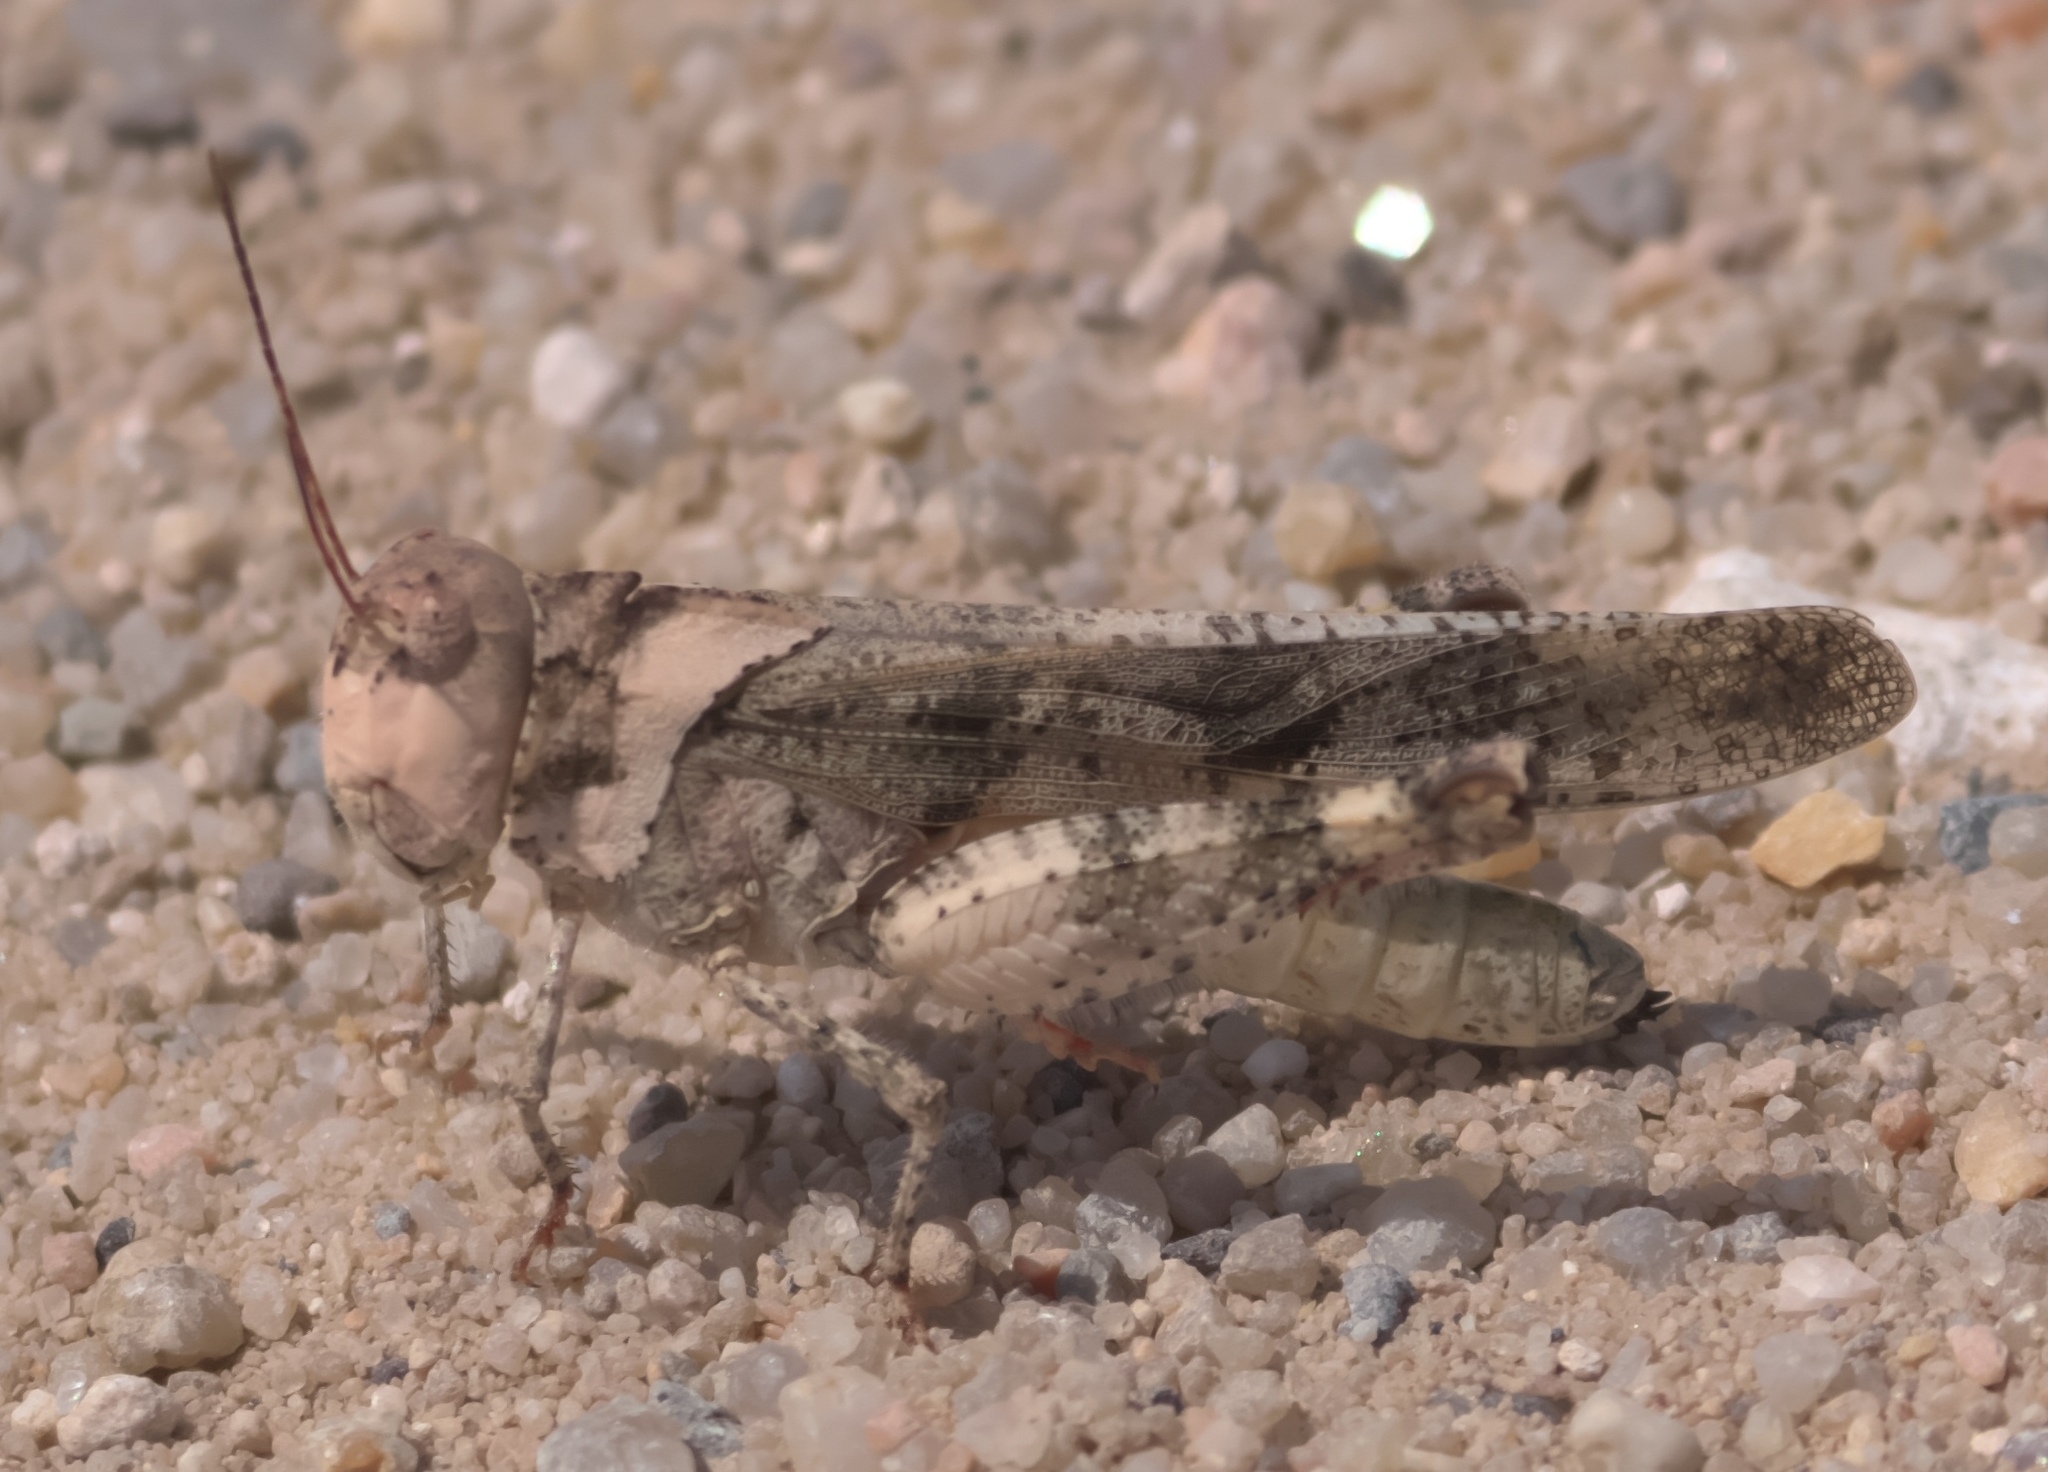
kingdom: Animalia
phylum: Arthropoda
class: Insecta
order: Orthoptera
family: Acrididae
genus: Spharagemon
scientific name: Spharagemon collare
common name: Mottled sand grasshopper
